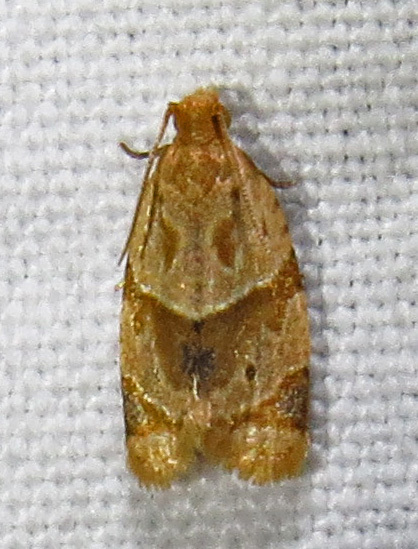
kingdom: Animalia
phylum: Arthropoda
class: Insecta
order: Lepidoptera
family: Tortricidae
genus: Clepsis
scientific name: Clepsis peritana
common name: Garden tortrix
